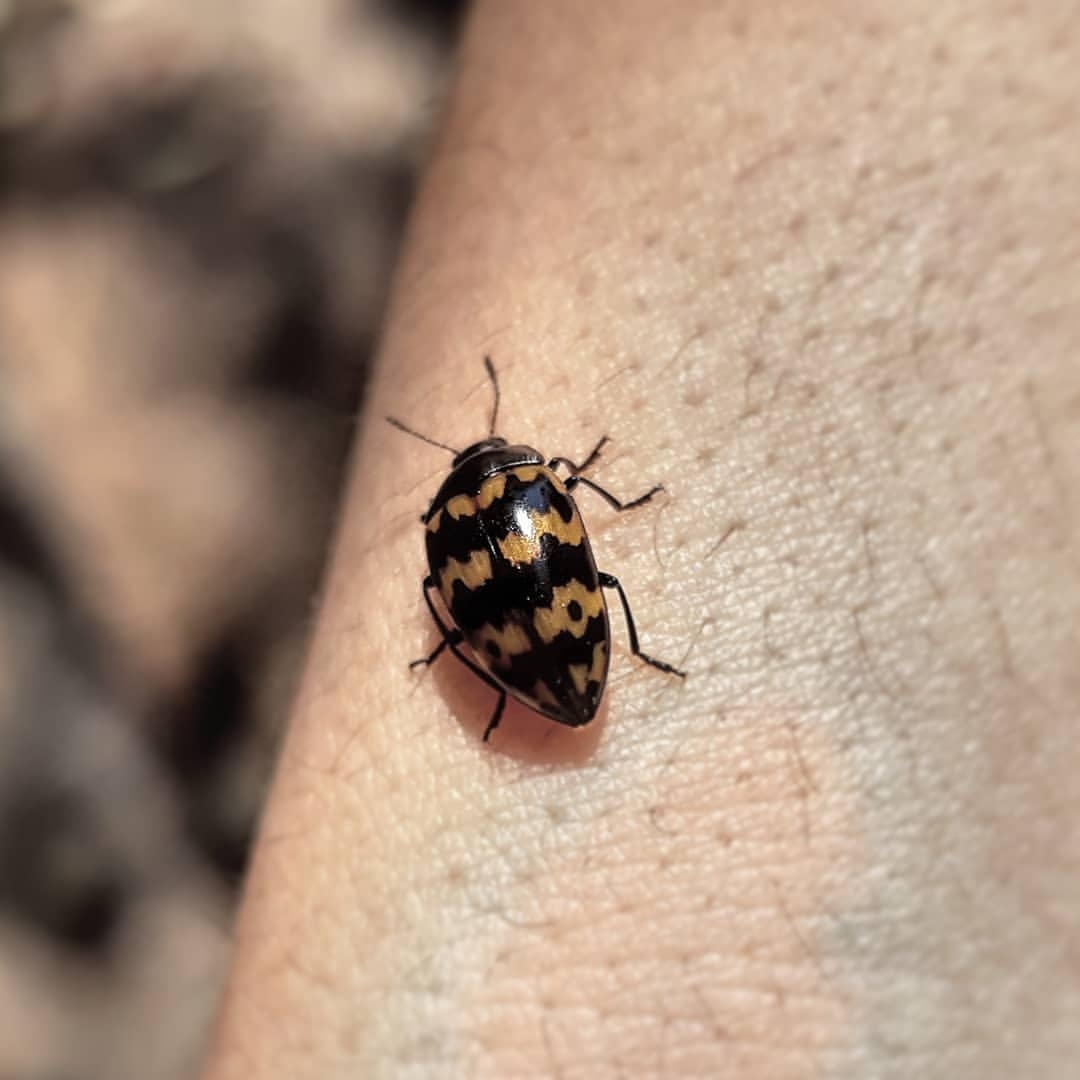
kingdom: Animalia
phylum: Arthropoda
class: Insecta
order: Coleoptera
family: Erotylidae
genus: Iphiclus
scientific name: Iphiclus
